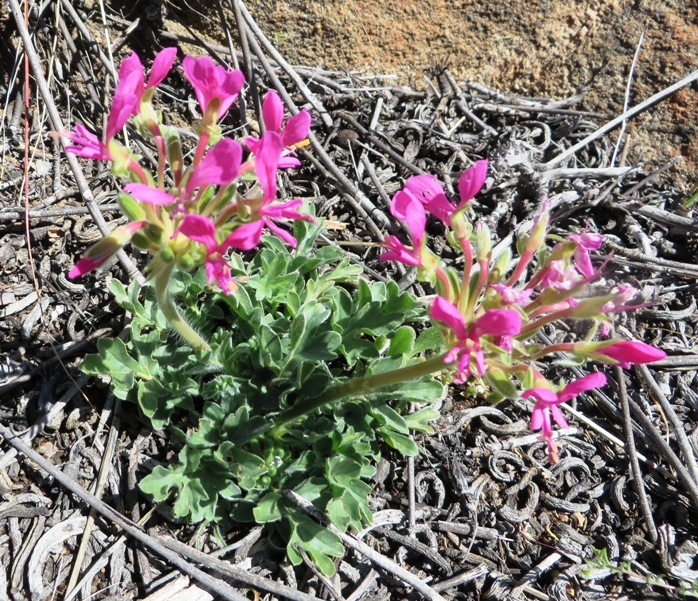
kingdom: Plantae
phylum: Tracheophyta
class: Magnoliopsida
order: Geraniales
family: Geraniaceae
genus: Pelargonium
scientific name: Pelargonium incrassatum
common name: Namaqualand beauty
